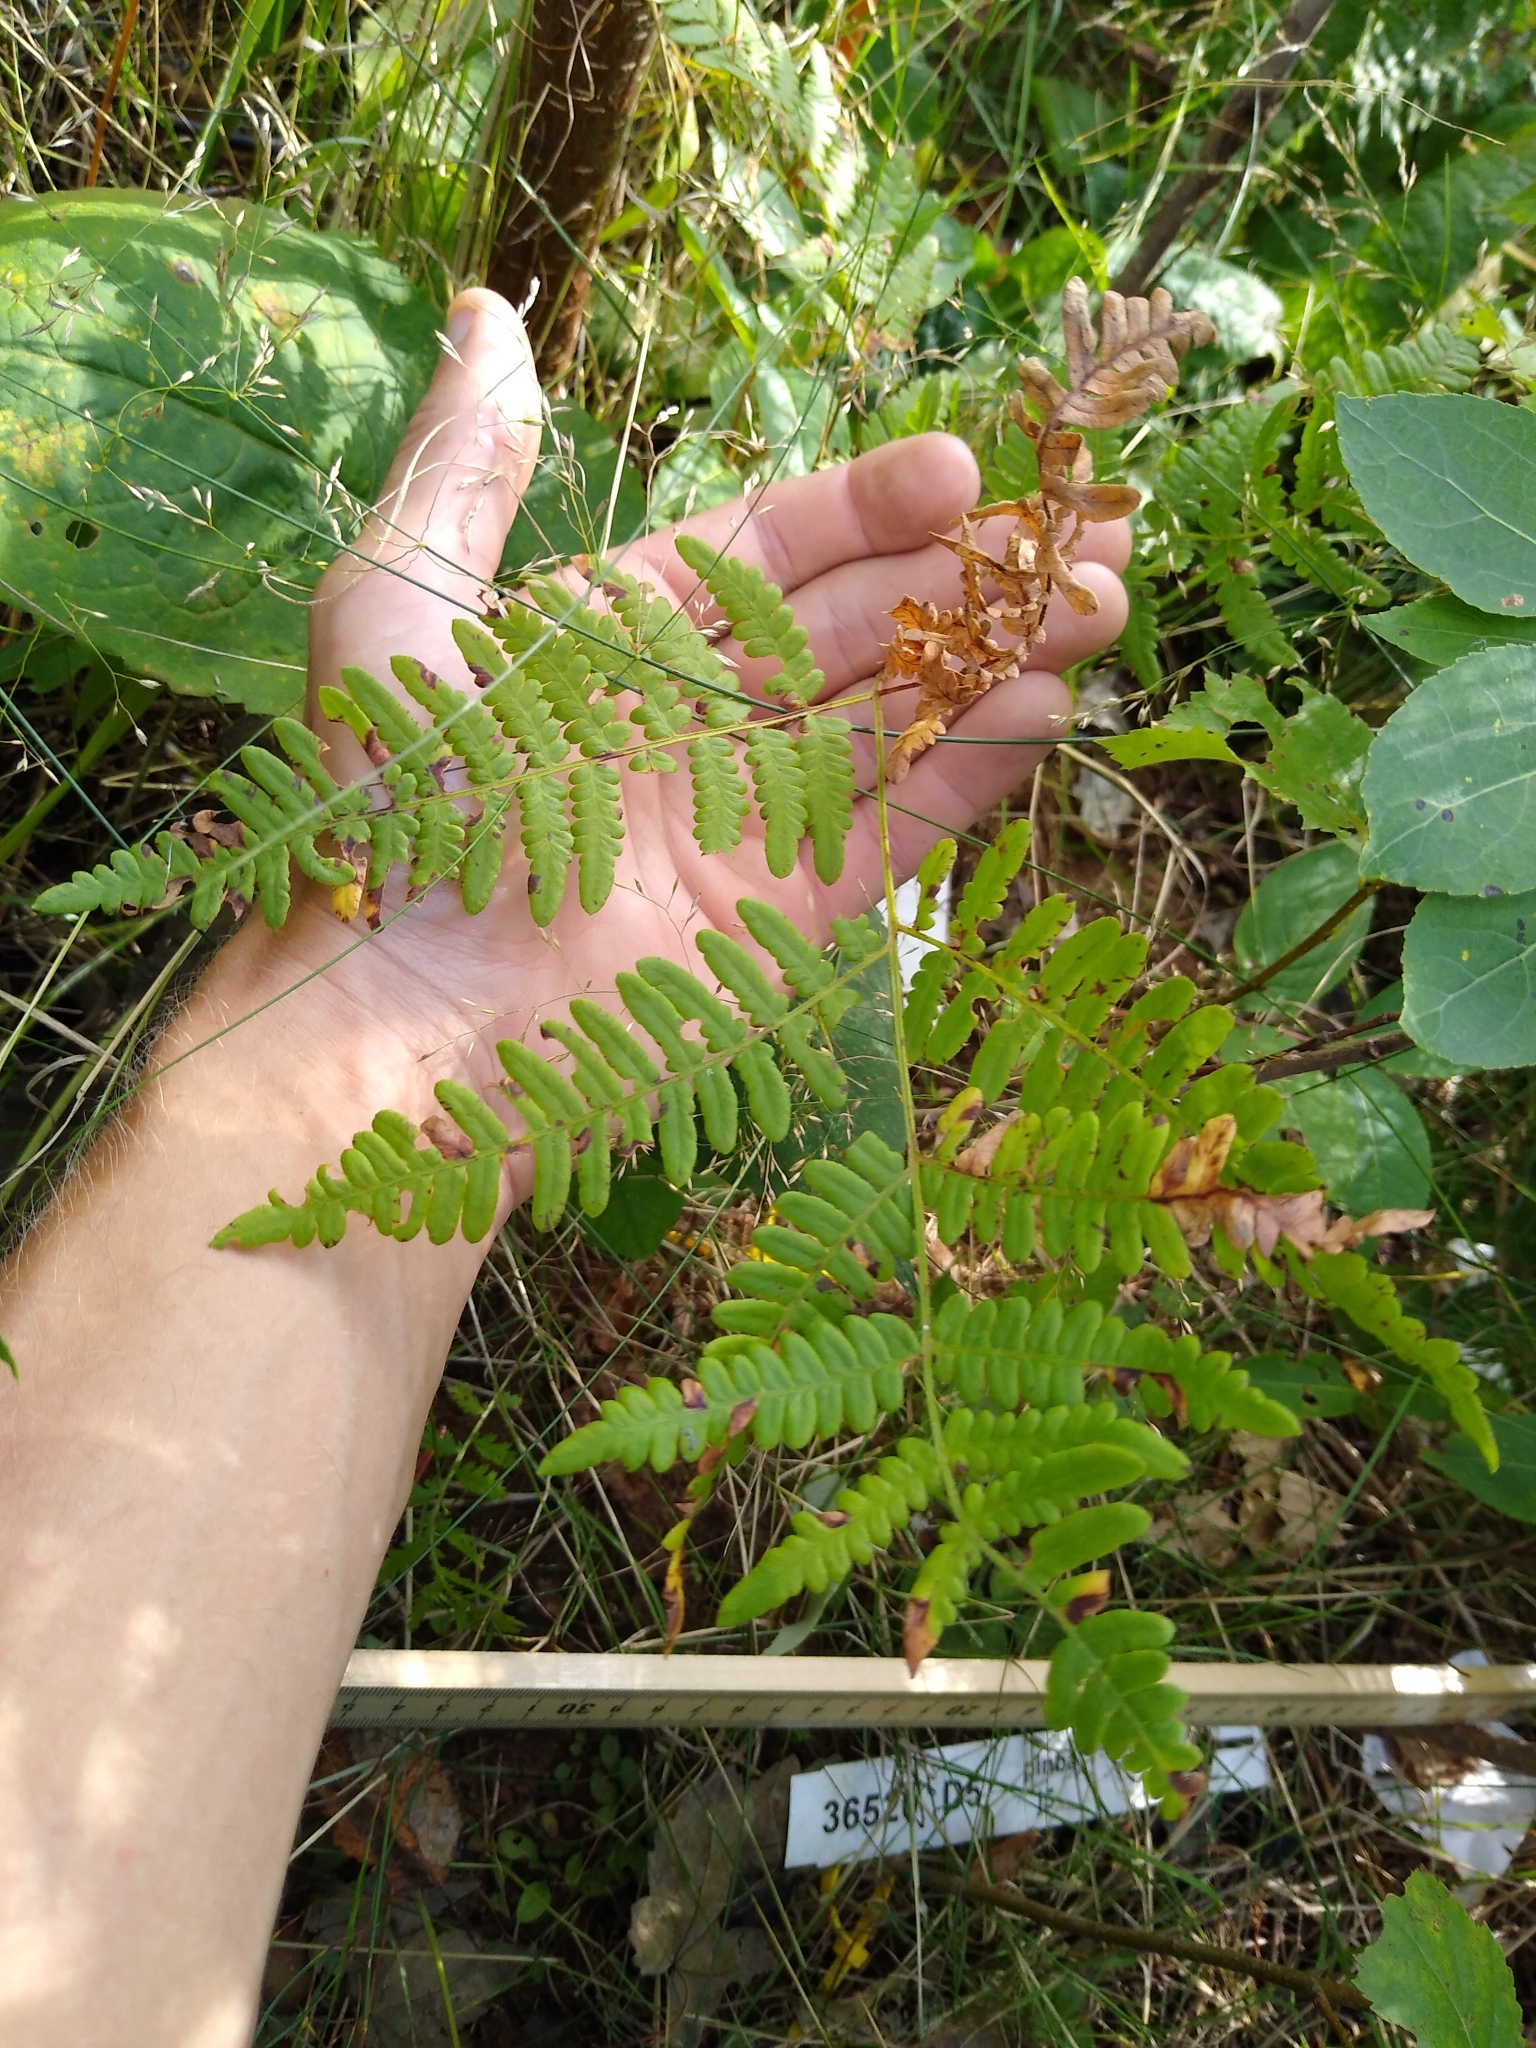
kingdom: Plantae
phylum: Tracheophyta
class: Polypodiopsida
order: Polypodiales
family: Dennstaedtiaceae
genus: Pteridium
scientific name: Pteridium aquilinum
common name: Bracken
